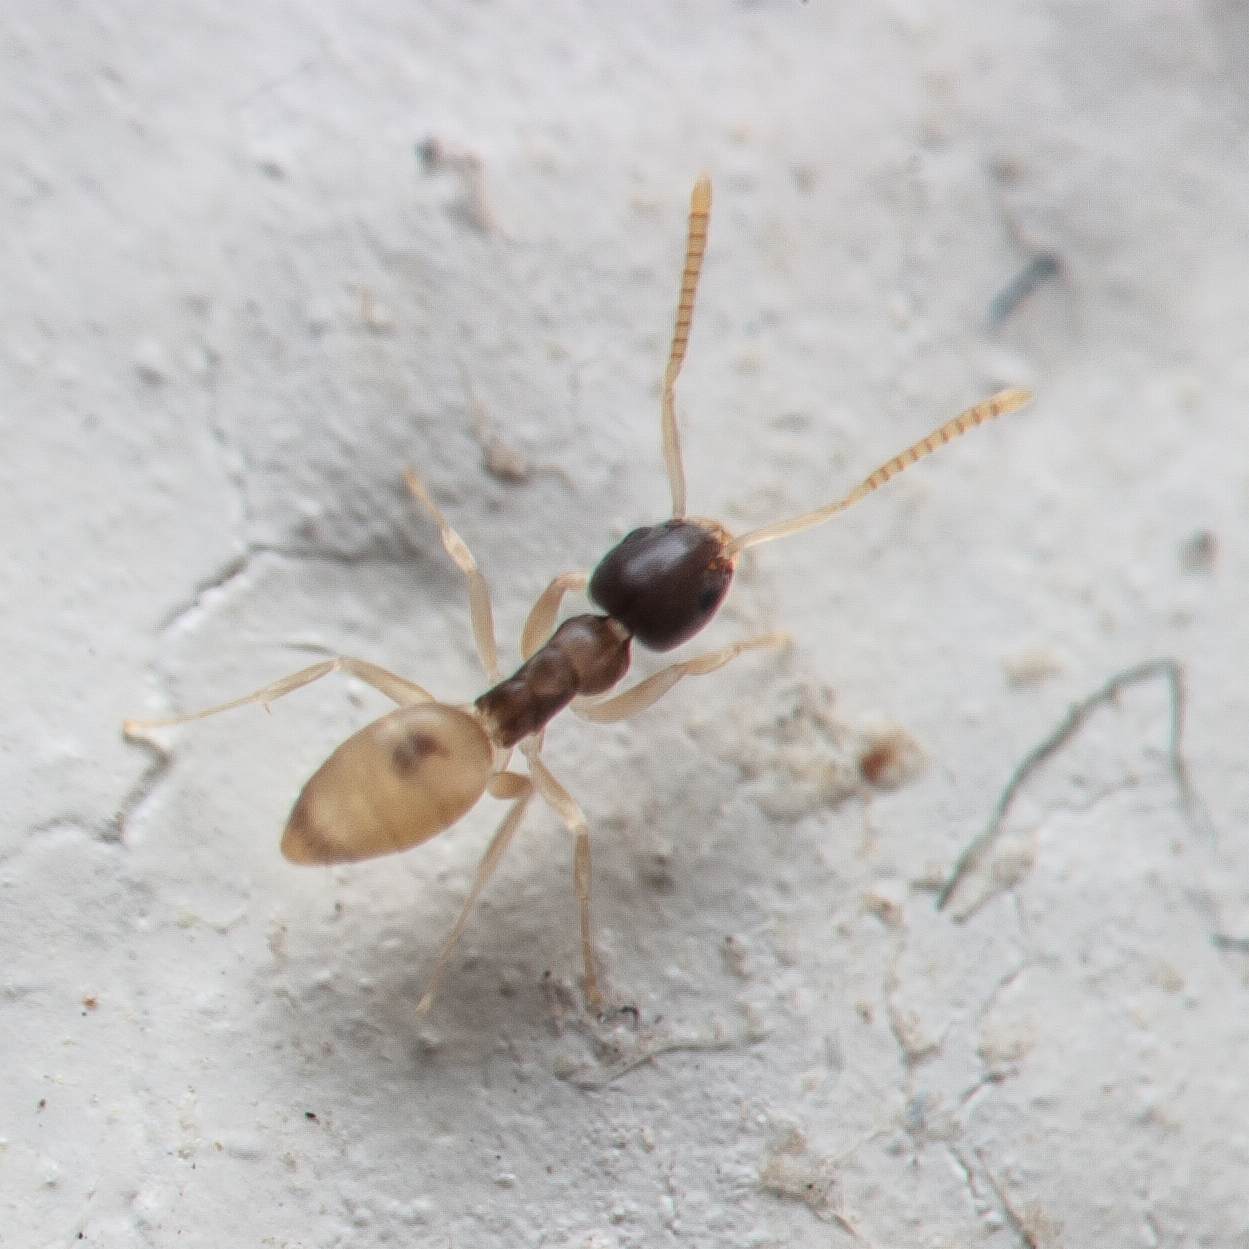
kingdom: Animalia
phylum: Arthropoda
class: Insecta
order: Hymenoptera
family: Formicidae
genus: Tapinoma
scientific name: Tapinoma melanocephalum
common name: Ghost ant
